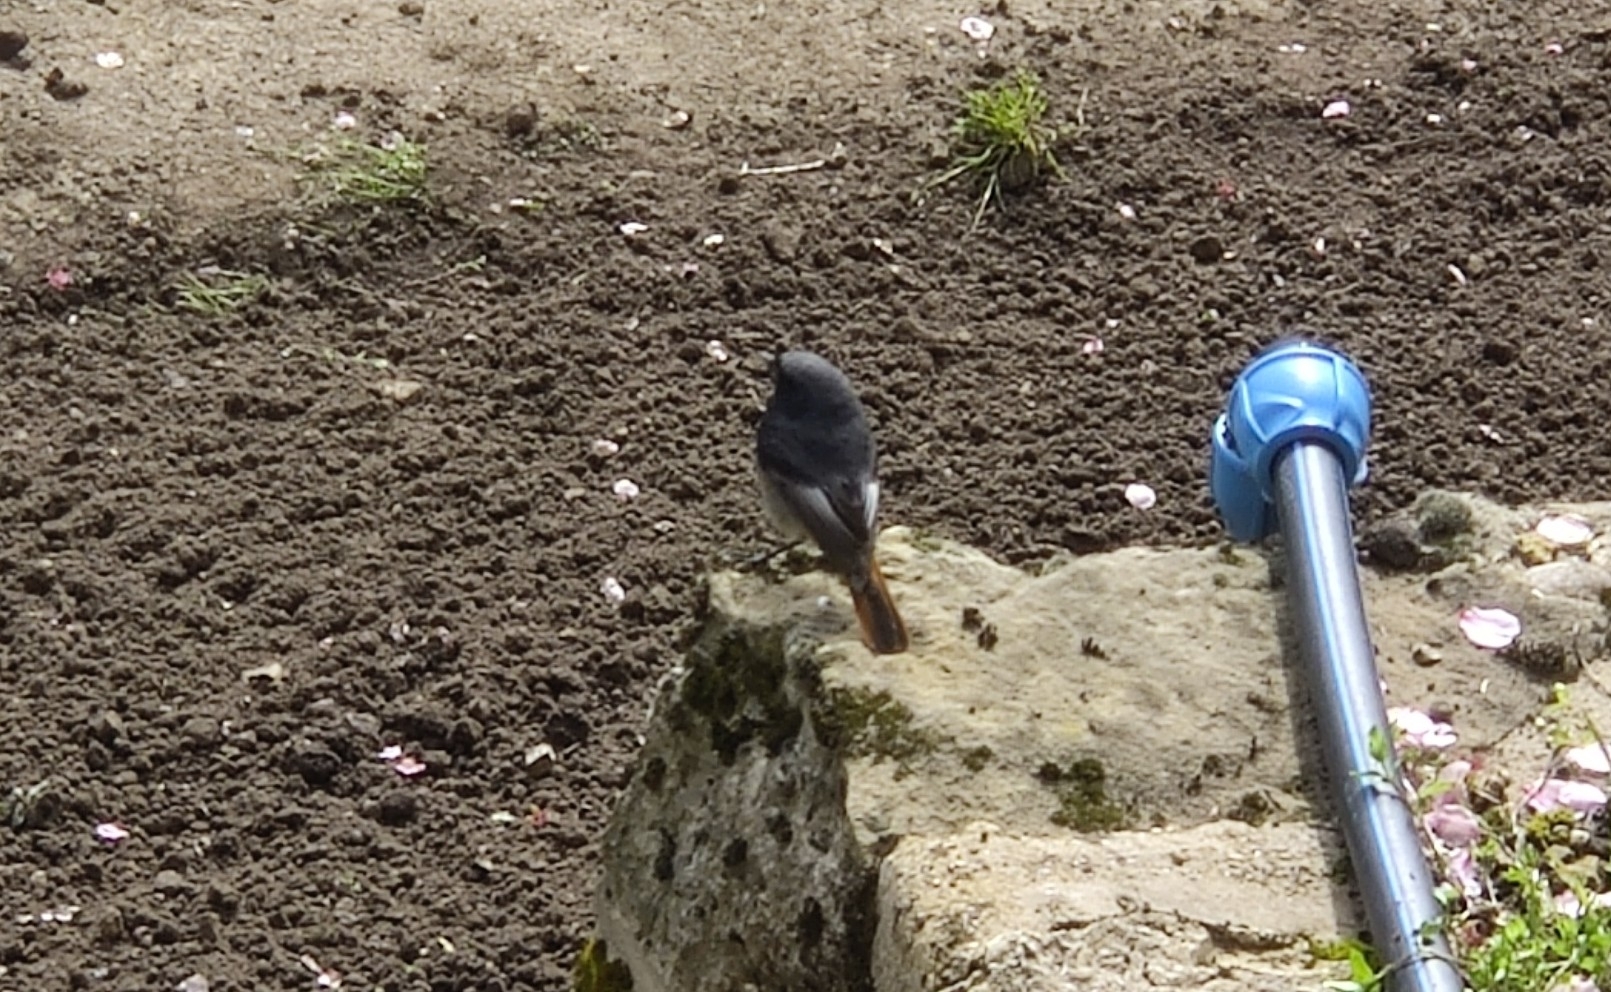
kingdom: Animalia
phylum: Chordata
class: Aves
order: Passeriformes
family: Muscicapidae
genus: Phoenicurus
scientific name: Phoenicurus ochruros
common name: Black redstart
